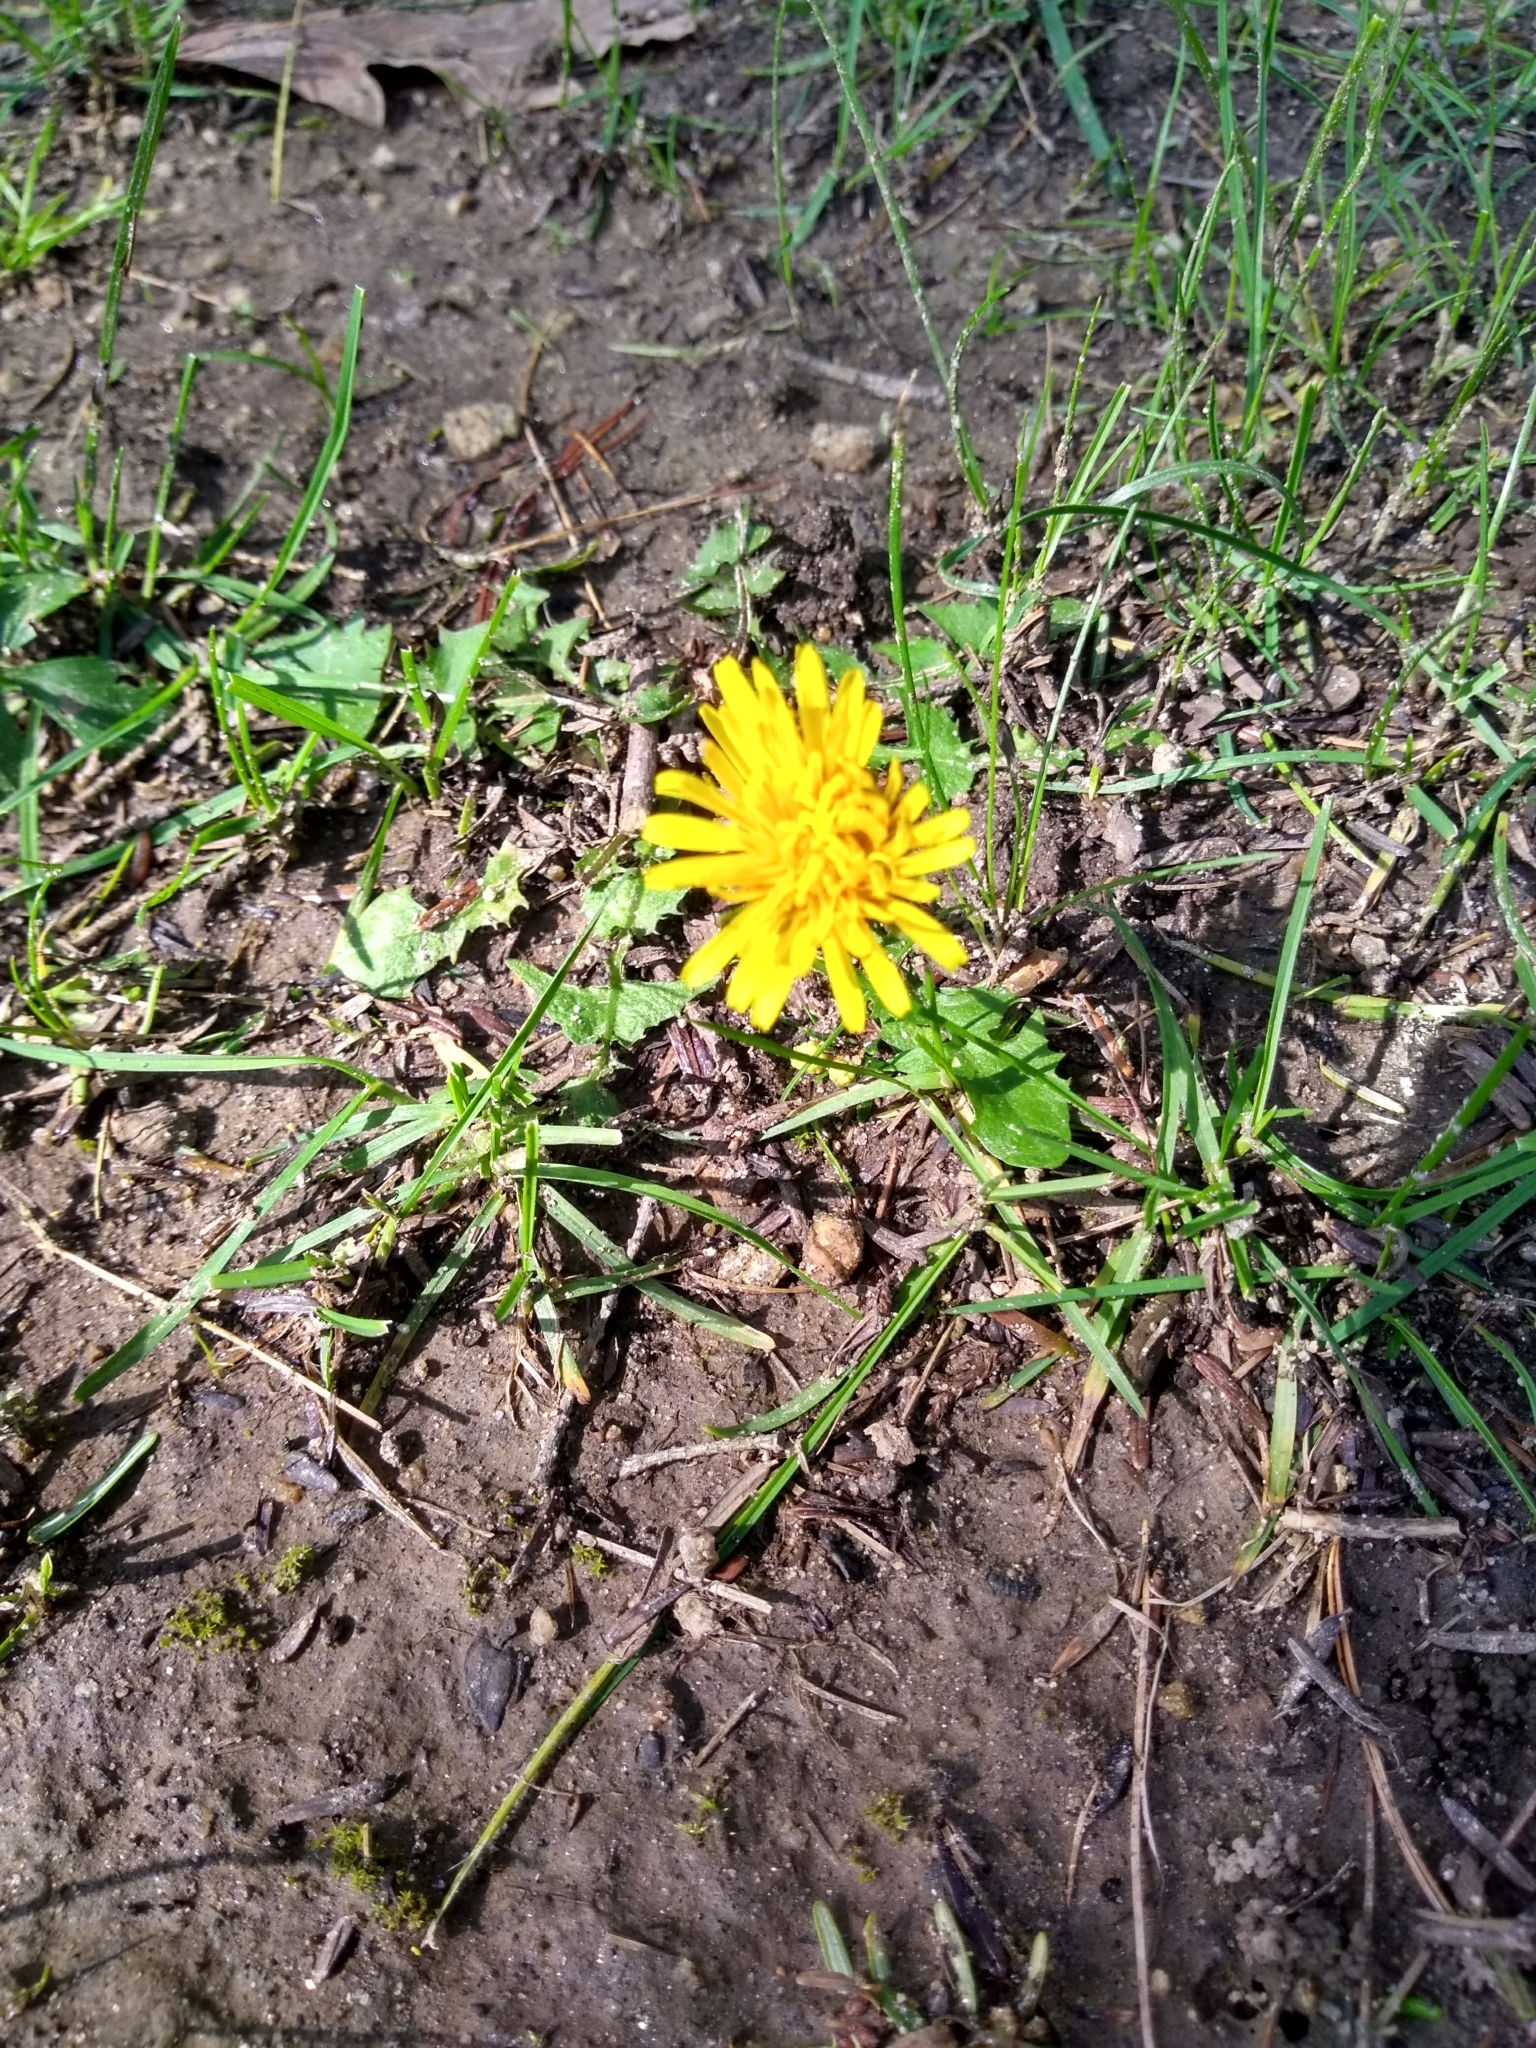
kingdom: Plantae
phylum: Tracheophyta
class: Magnoliopsida
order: Asterales
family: Asteraceae
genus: Taraxacum
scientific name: Taraxacum officinale
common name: Common dandelion
